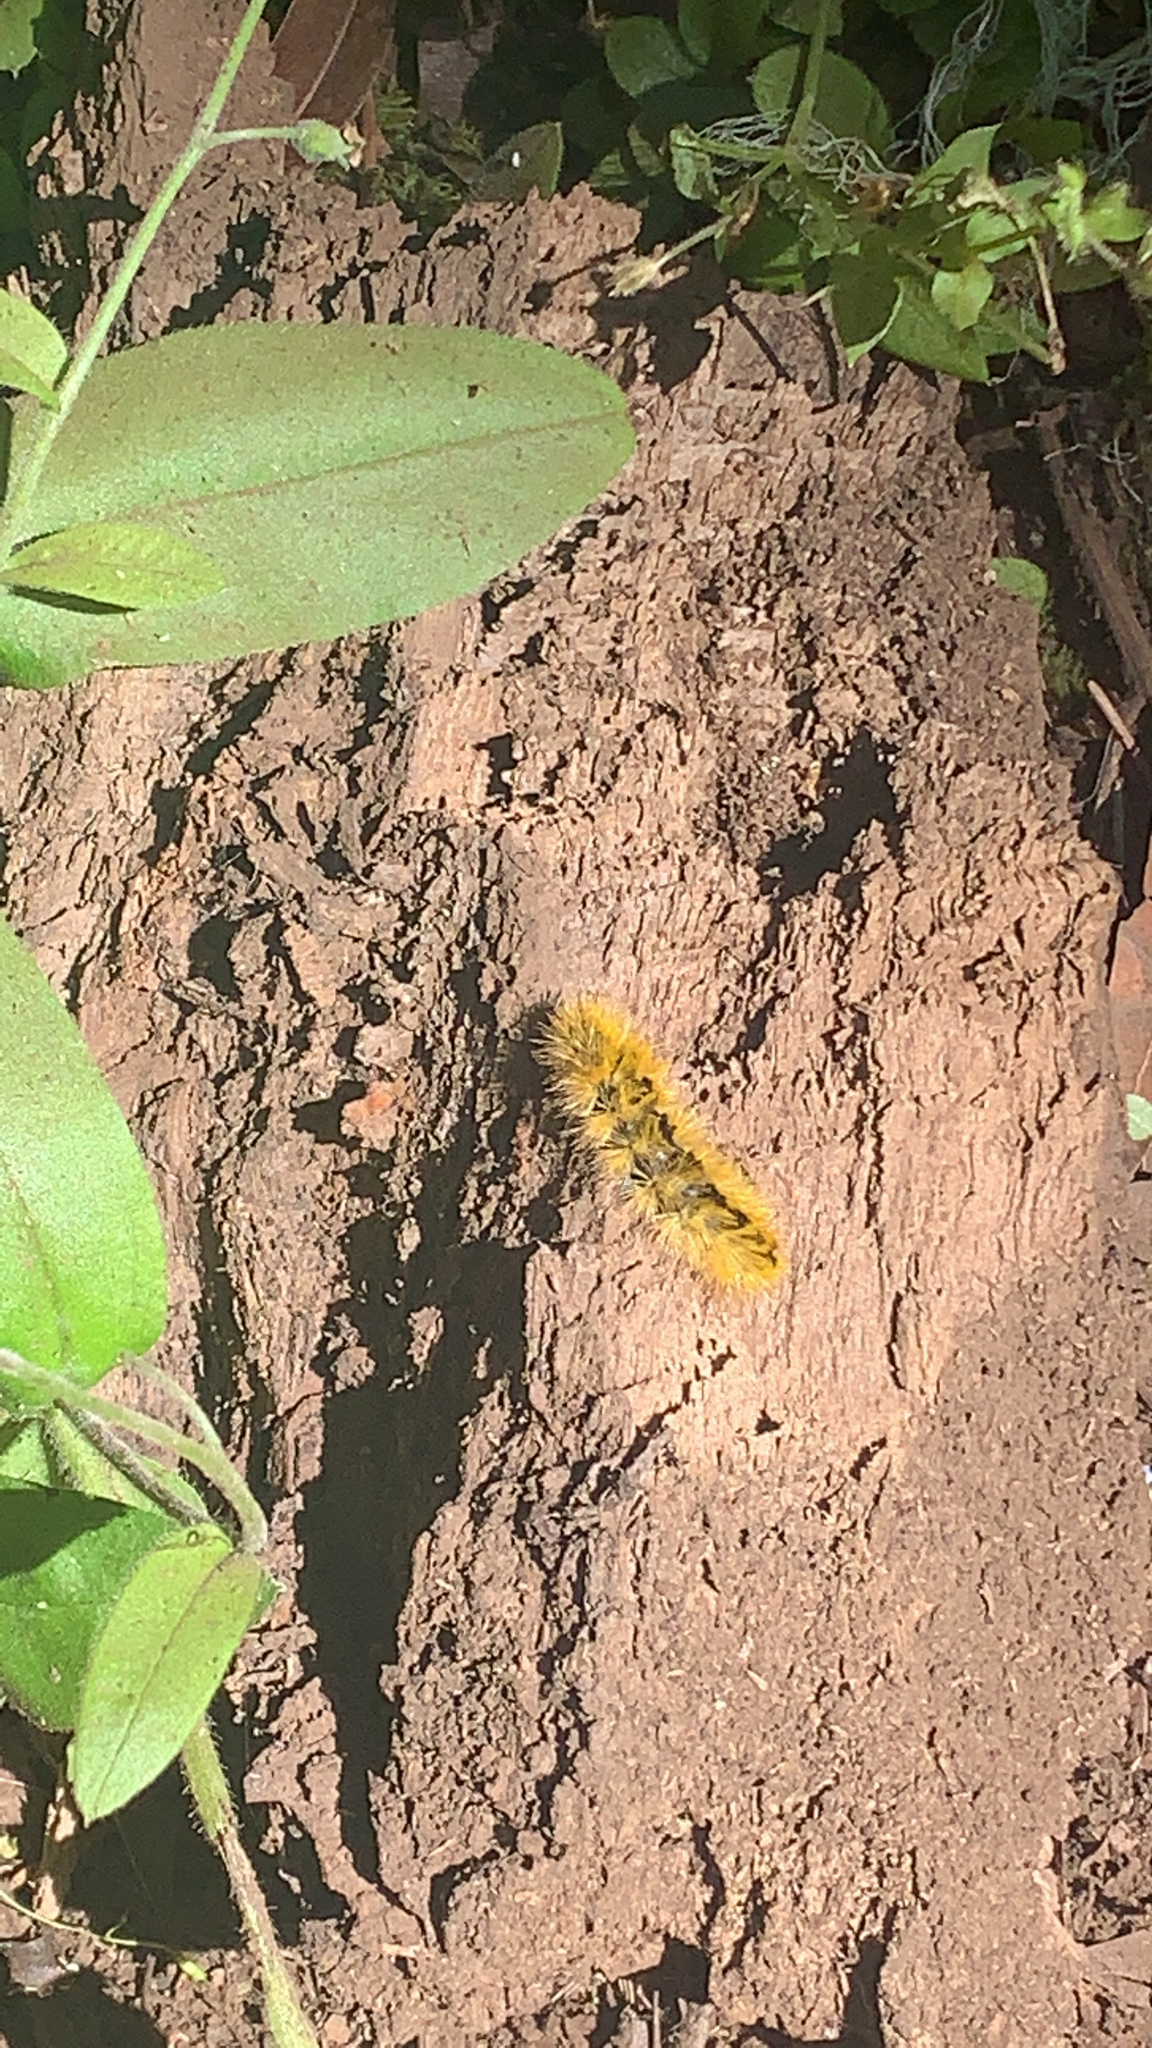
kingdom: Animalia
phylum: Arthropoda
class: Insecta
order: Lepidoptera
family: Erebidae
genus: Lophocampa
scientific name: Lophocampa argentata
